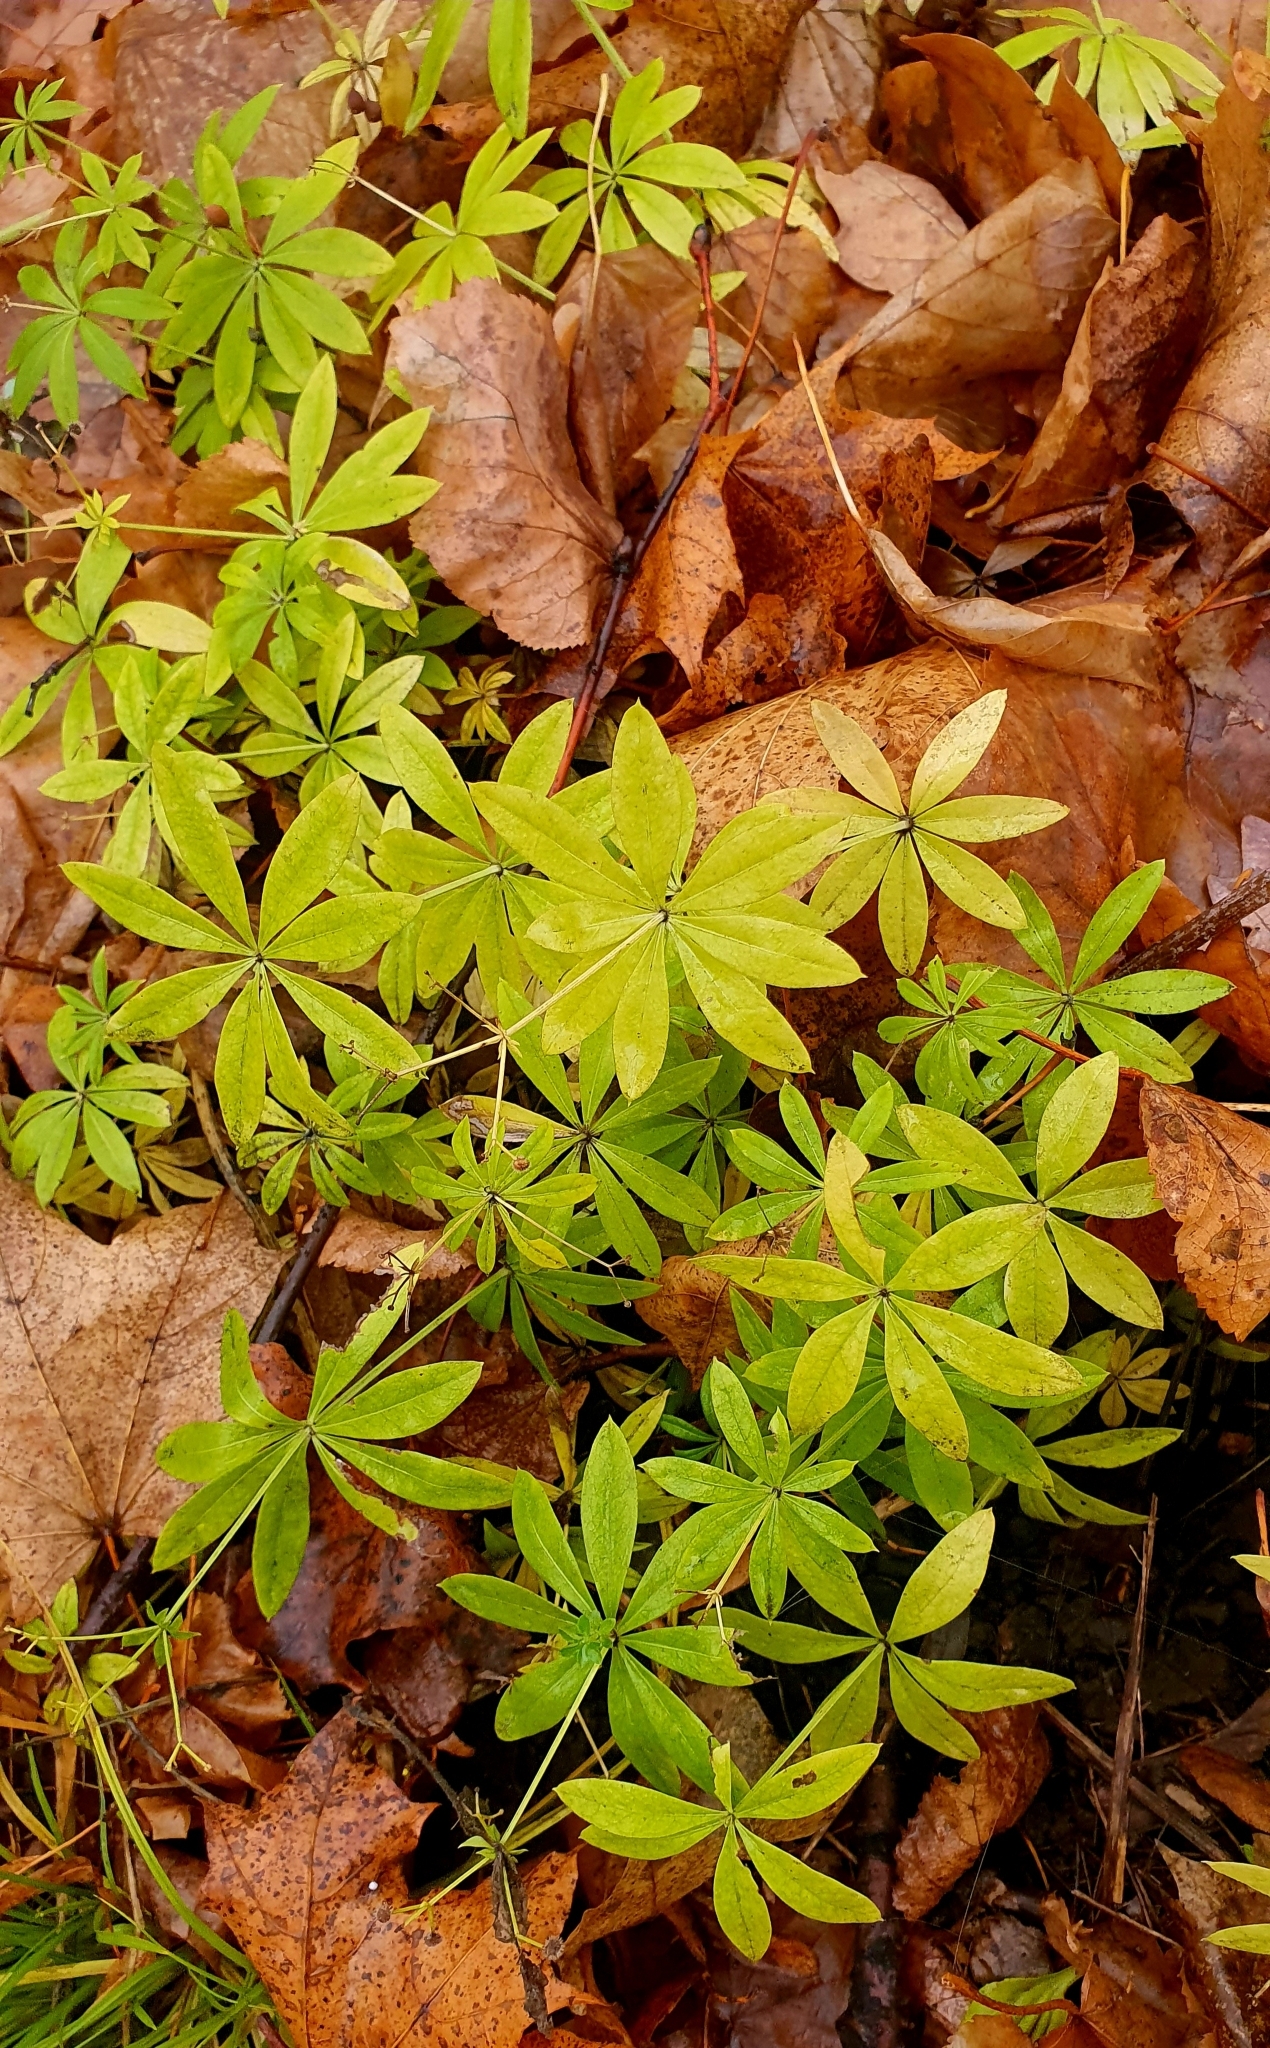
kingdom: Plantae
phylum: Tracheophyta
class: Magnoliopsida
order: Gentianales
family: Rubiaceae
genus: Galium
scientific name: Galium odoratum
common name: Sweet woodruff
